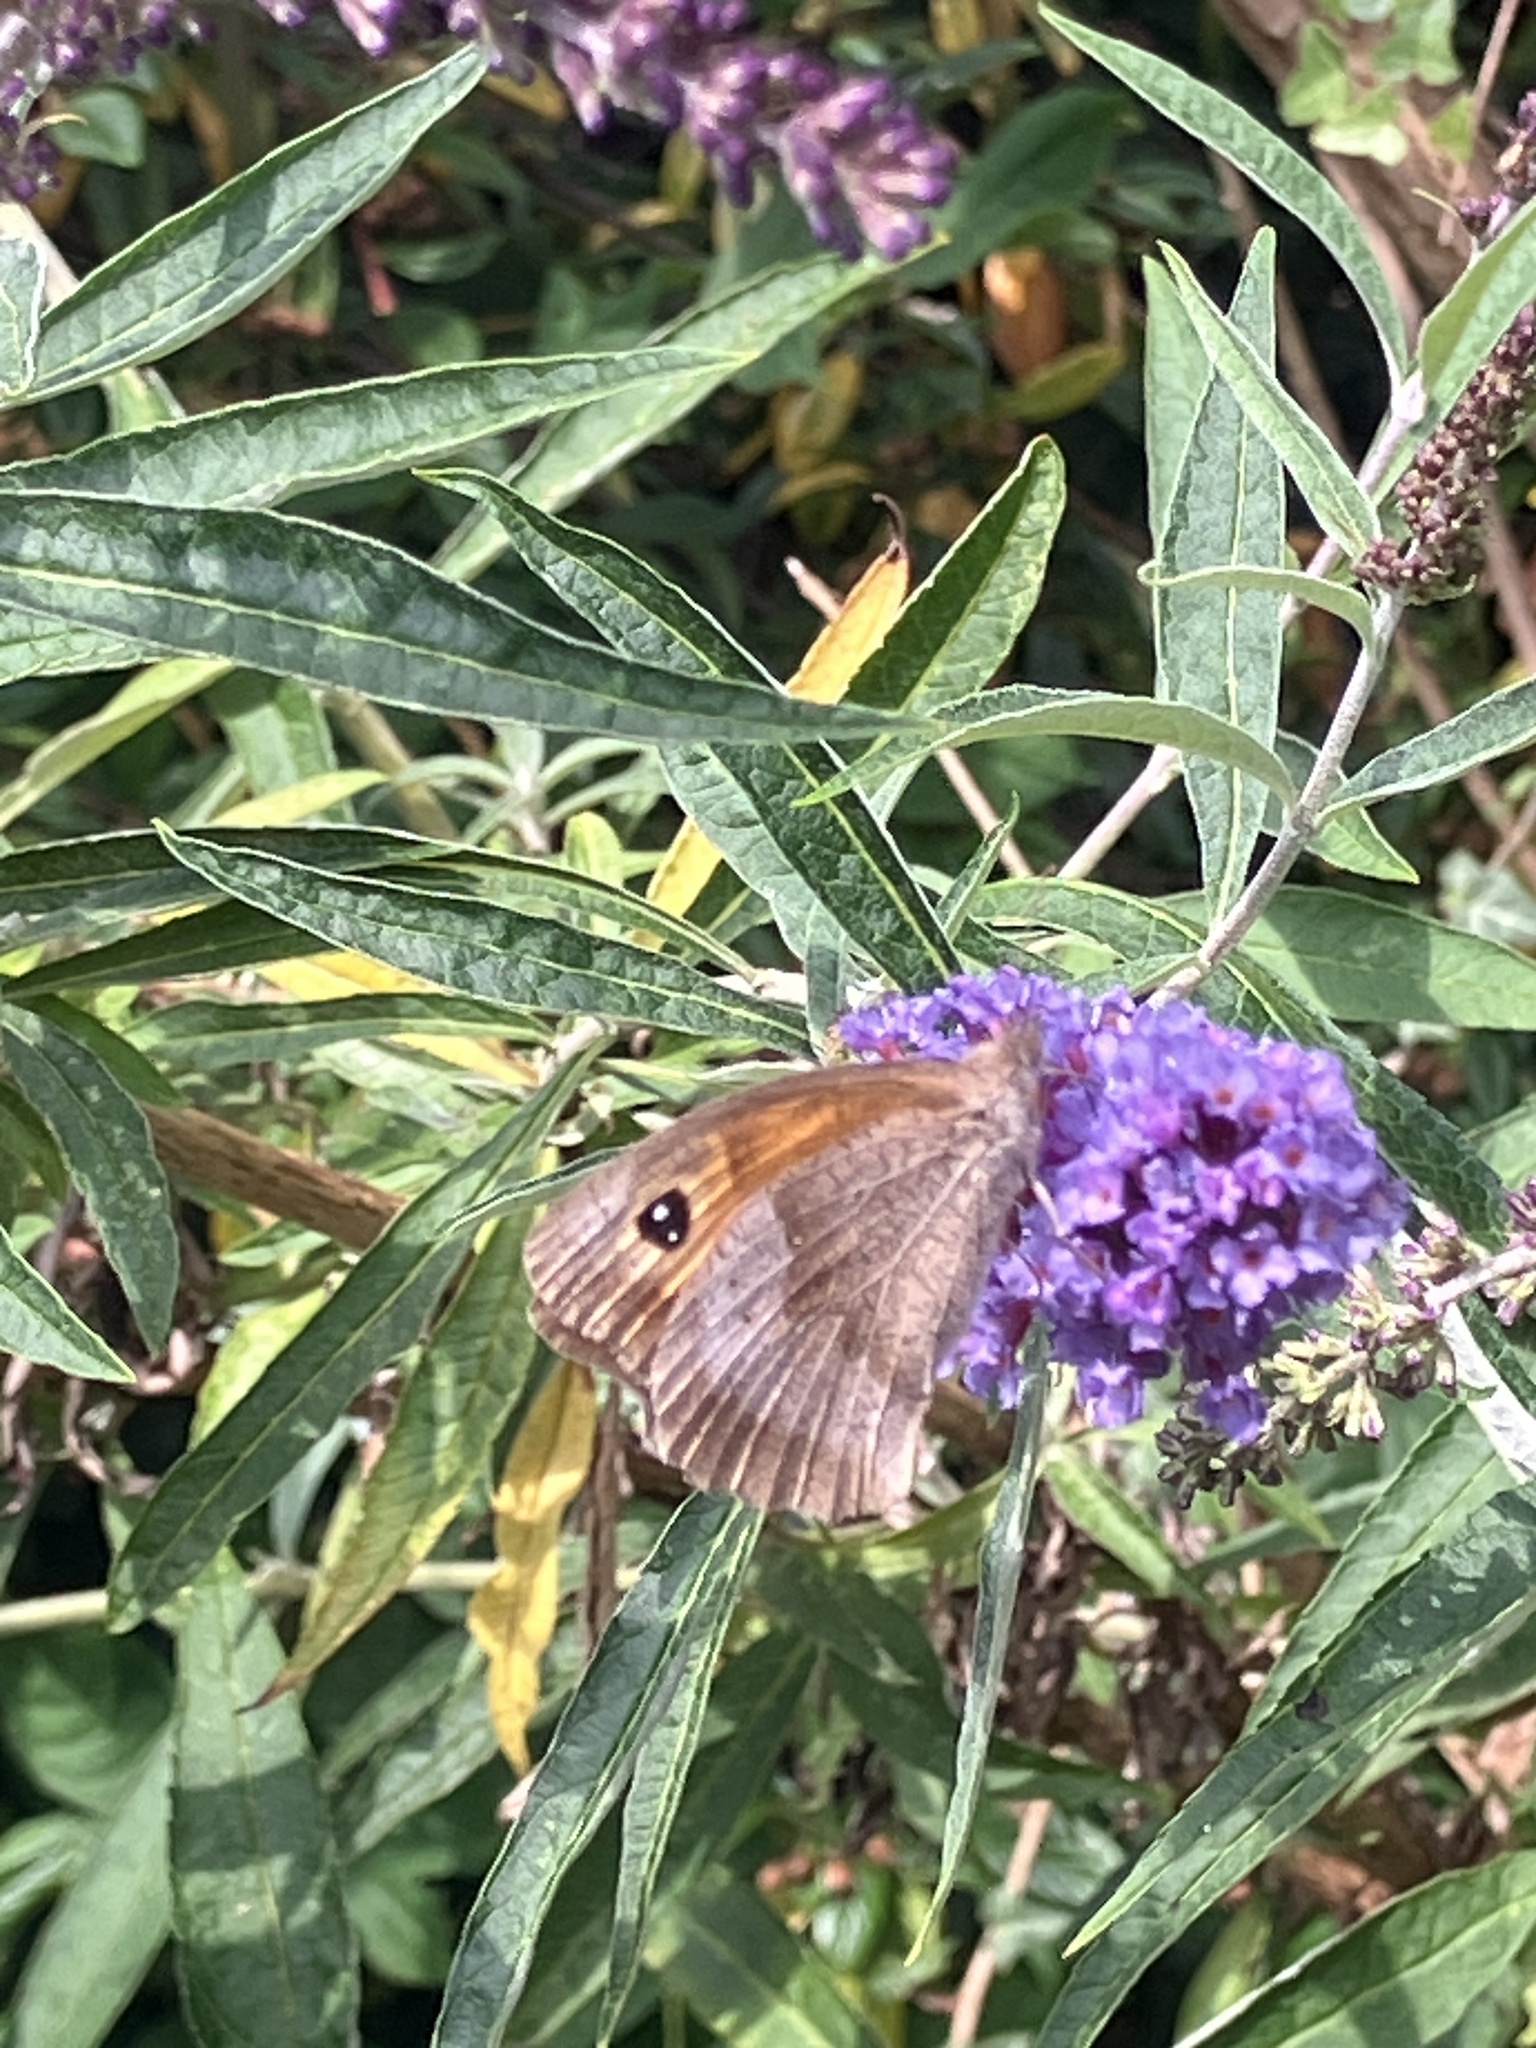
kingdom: Animalia
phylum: Arthropoda
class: Insecta
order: Lepidoptera
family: Nymphalidae
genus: Pyronia
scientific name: Pyronia tithonus
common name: Gatekeeper
